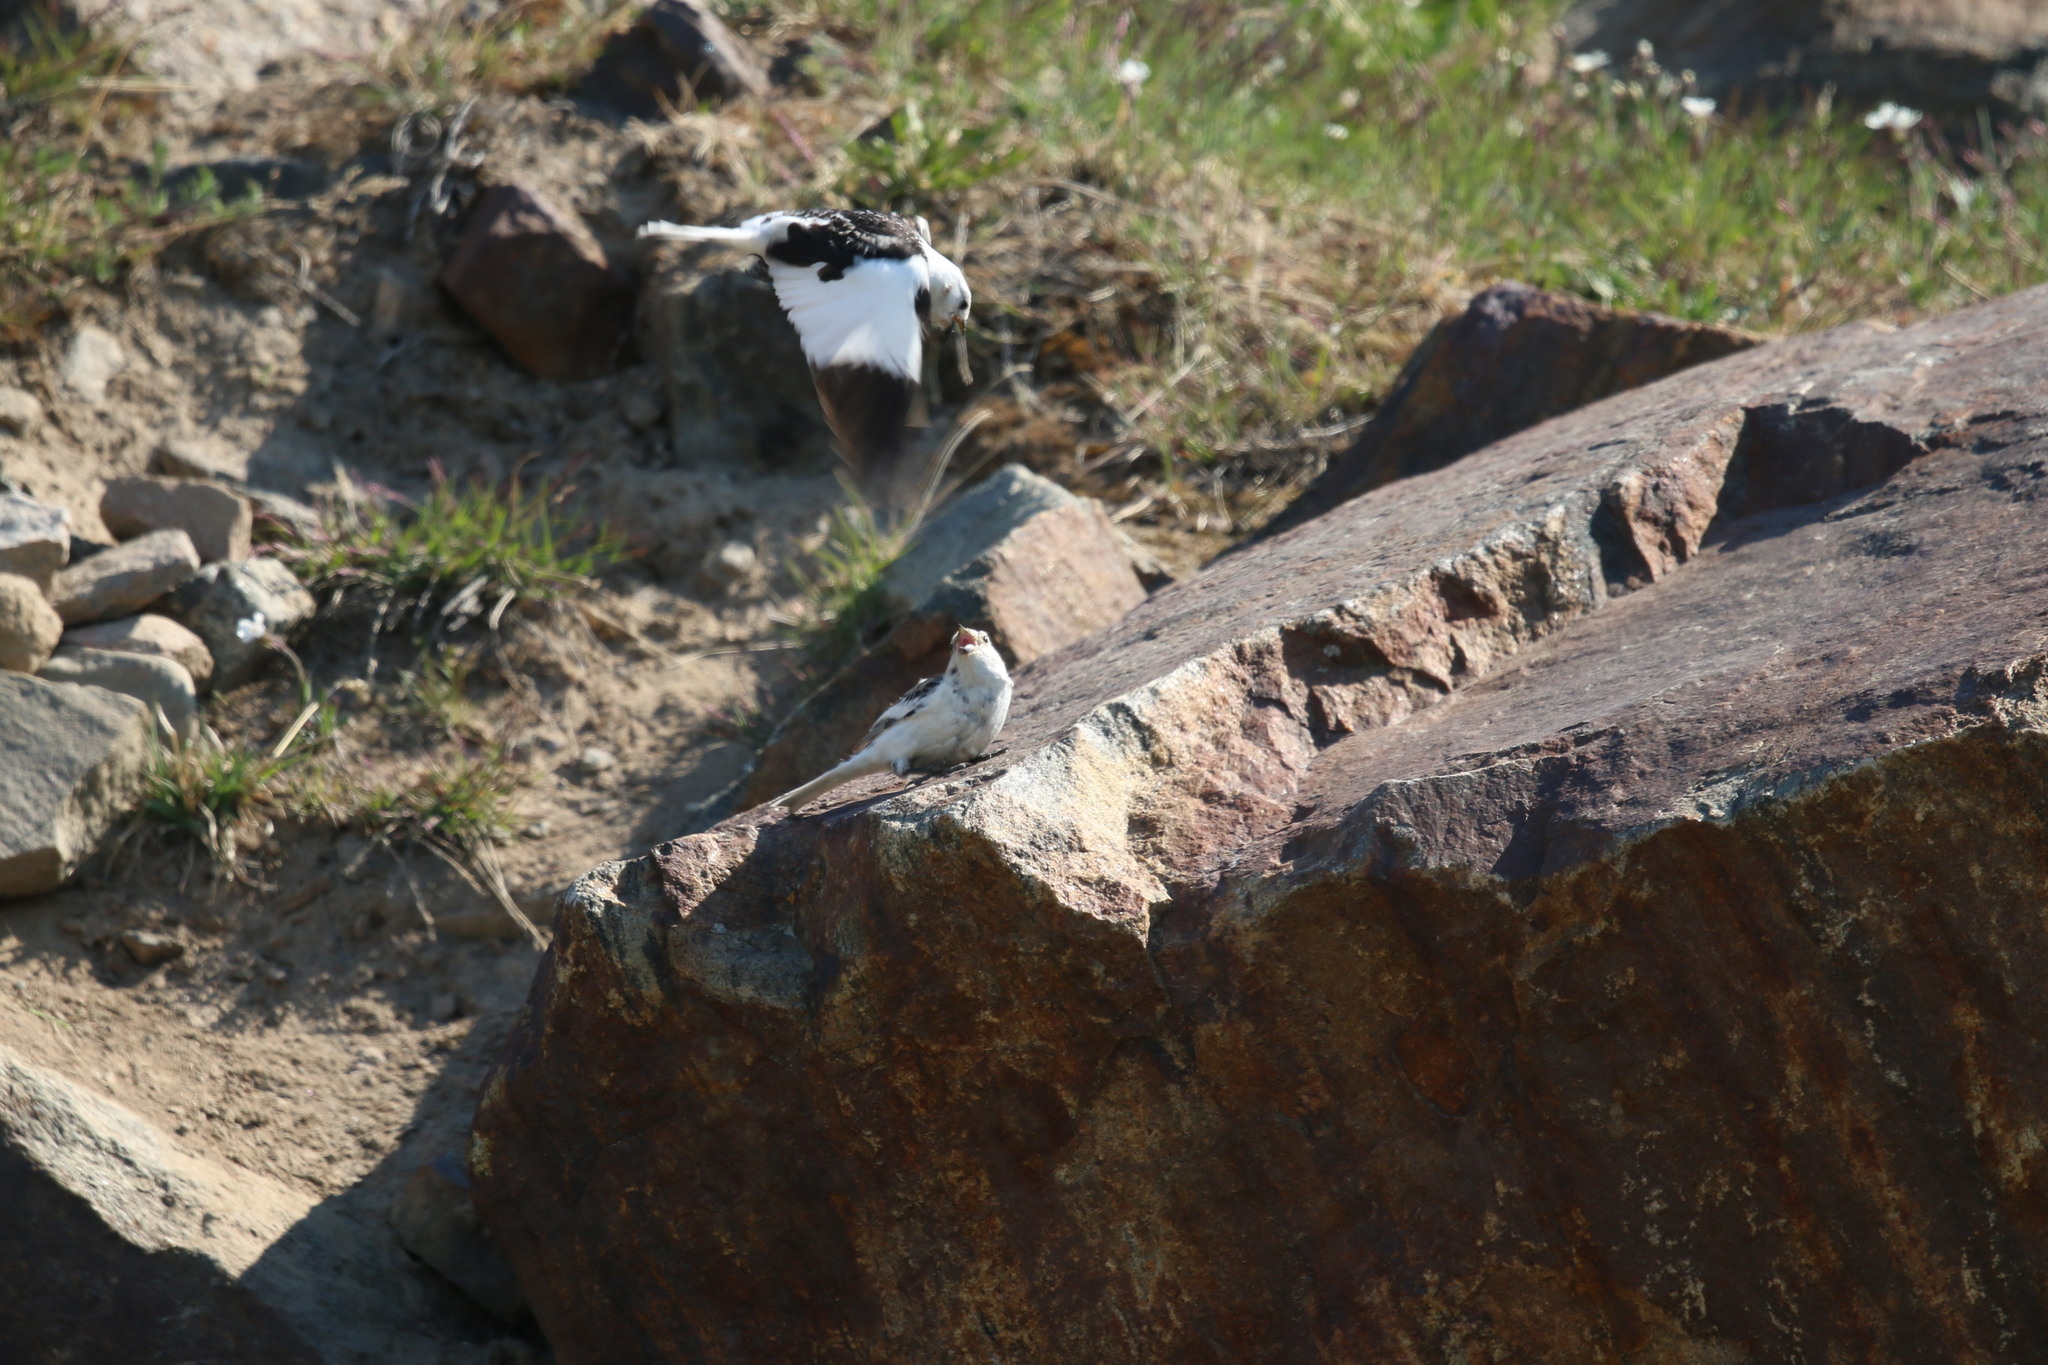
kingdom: Animalia
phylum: Chordata
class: Aves
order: Passeriformes
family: Calcariidae
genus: Plectrophenax
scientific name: Plectrophenax nivalis
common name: Snow bunting
